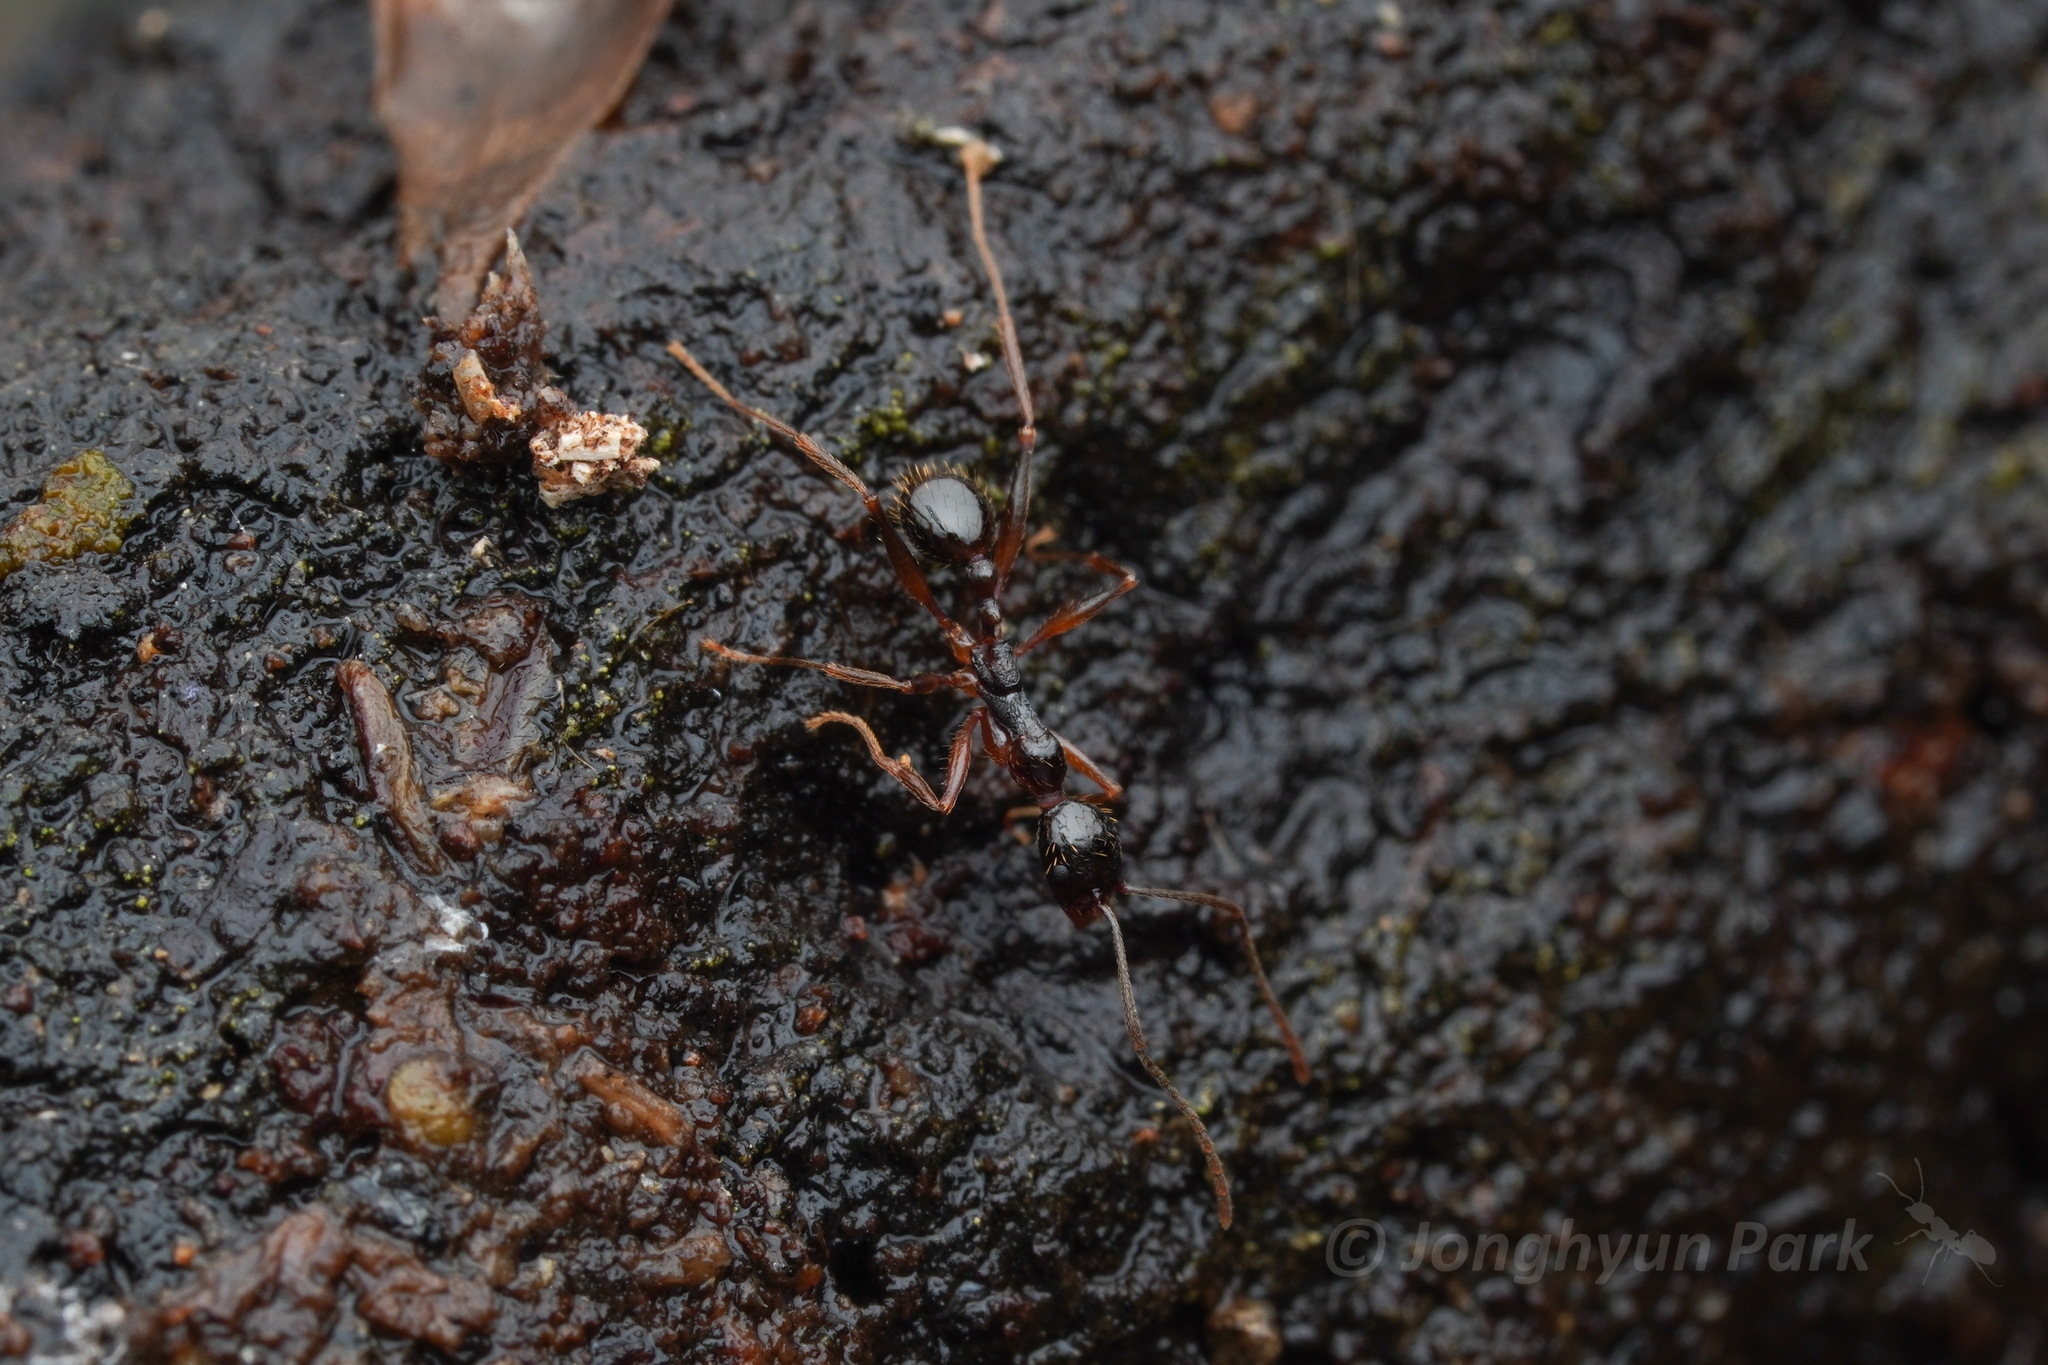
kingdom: Animalia
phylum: Arthropoda
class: Insecta
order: Hymenoptera
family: Formicidae
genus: Aphaenogaster
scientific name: Aphaenogaster famelica
